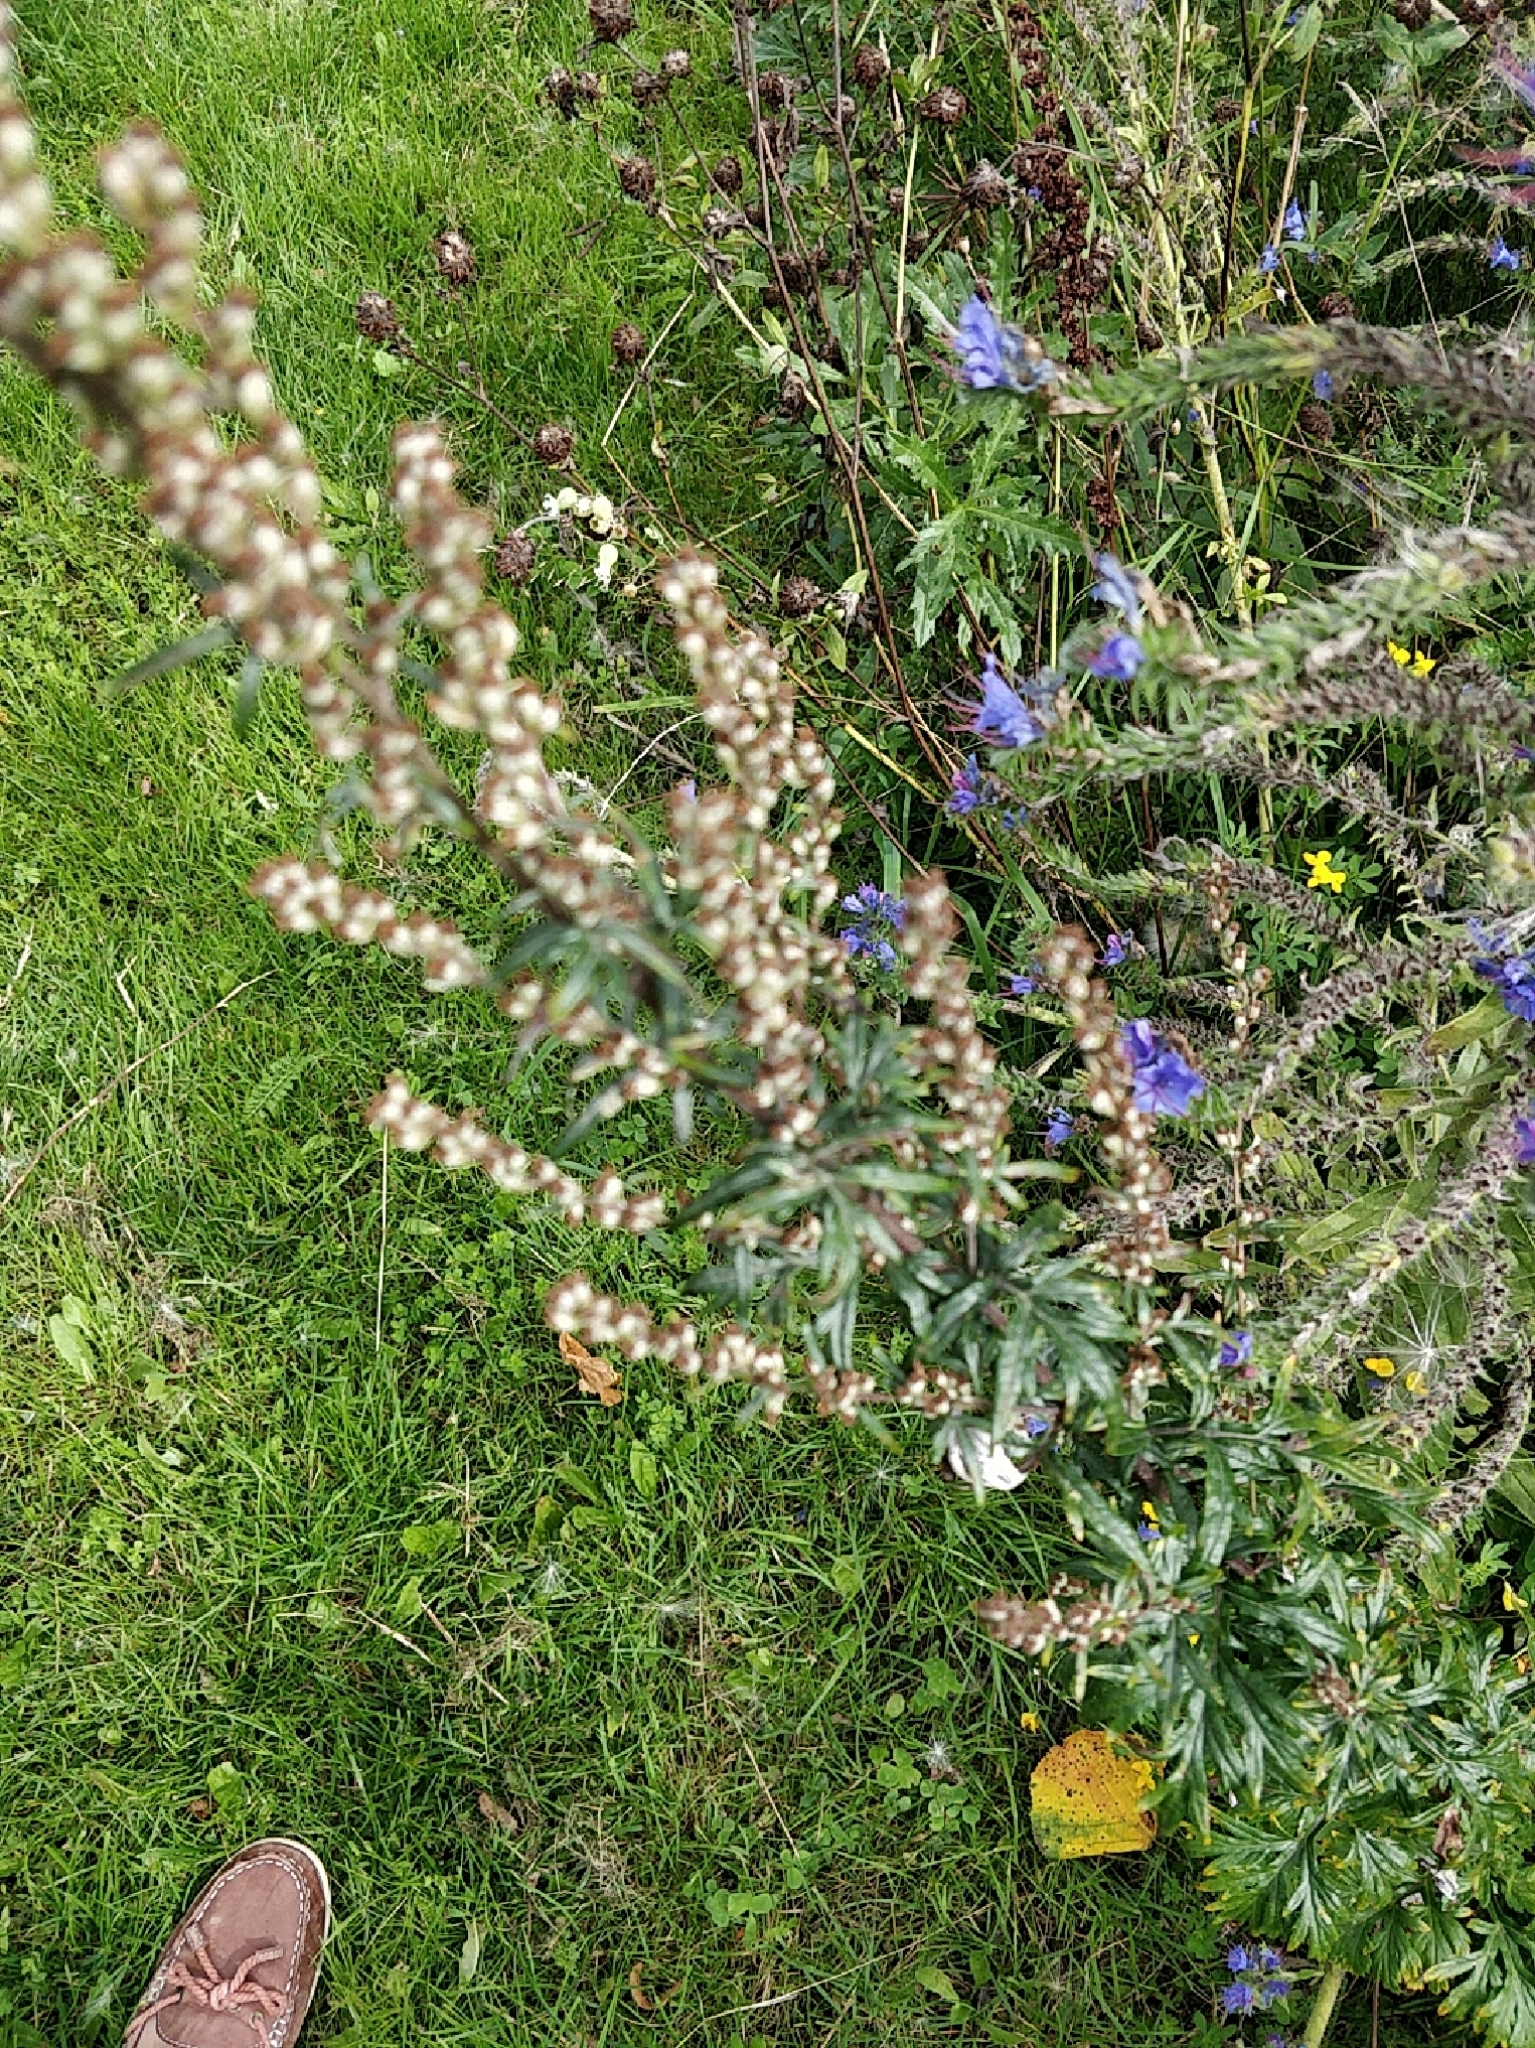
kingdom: Plantae
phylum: Tracheophyta
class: Magnoliopsida
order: Boraginales
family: Boraginaceae
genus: Echium
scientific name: Echium vulgare
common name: Common viper's bugloss
